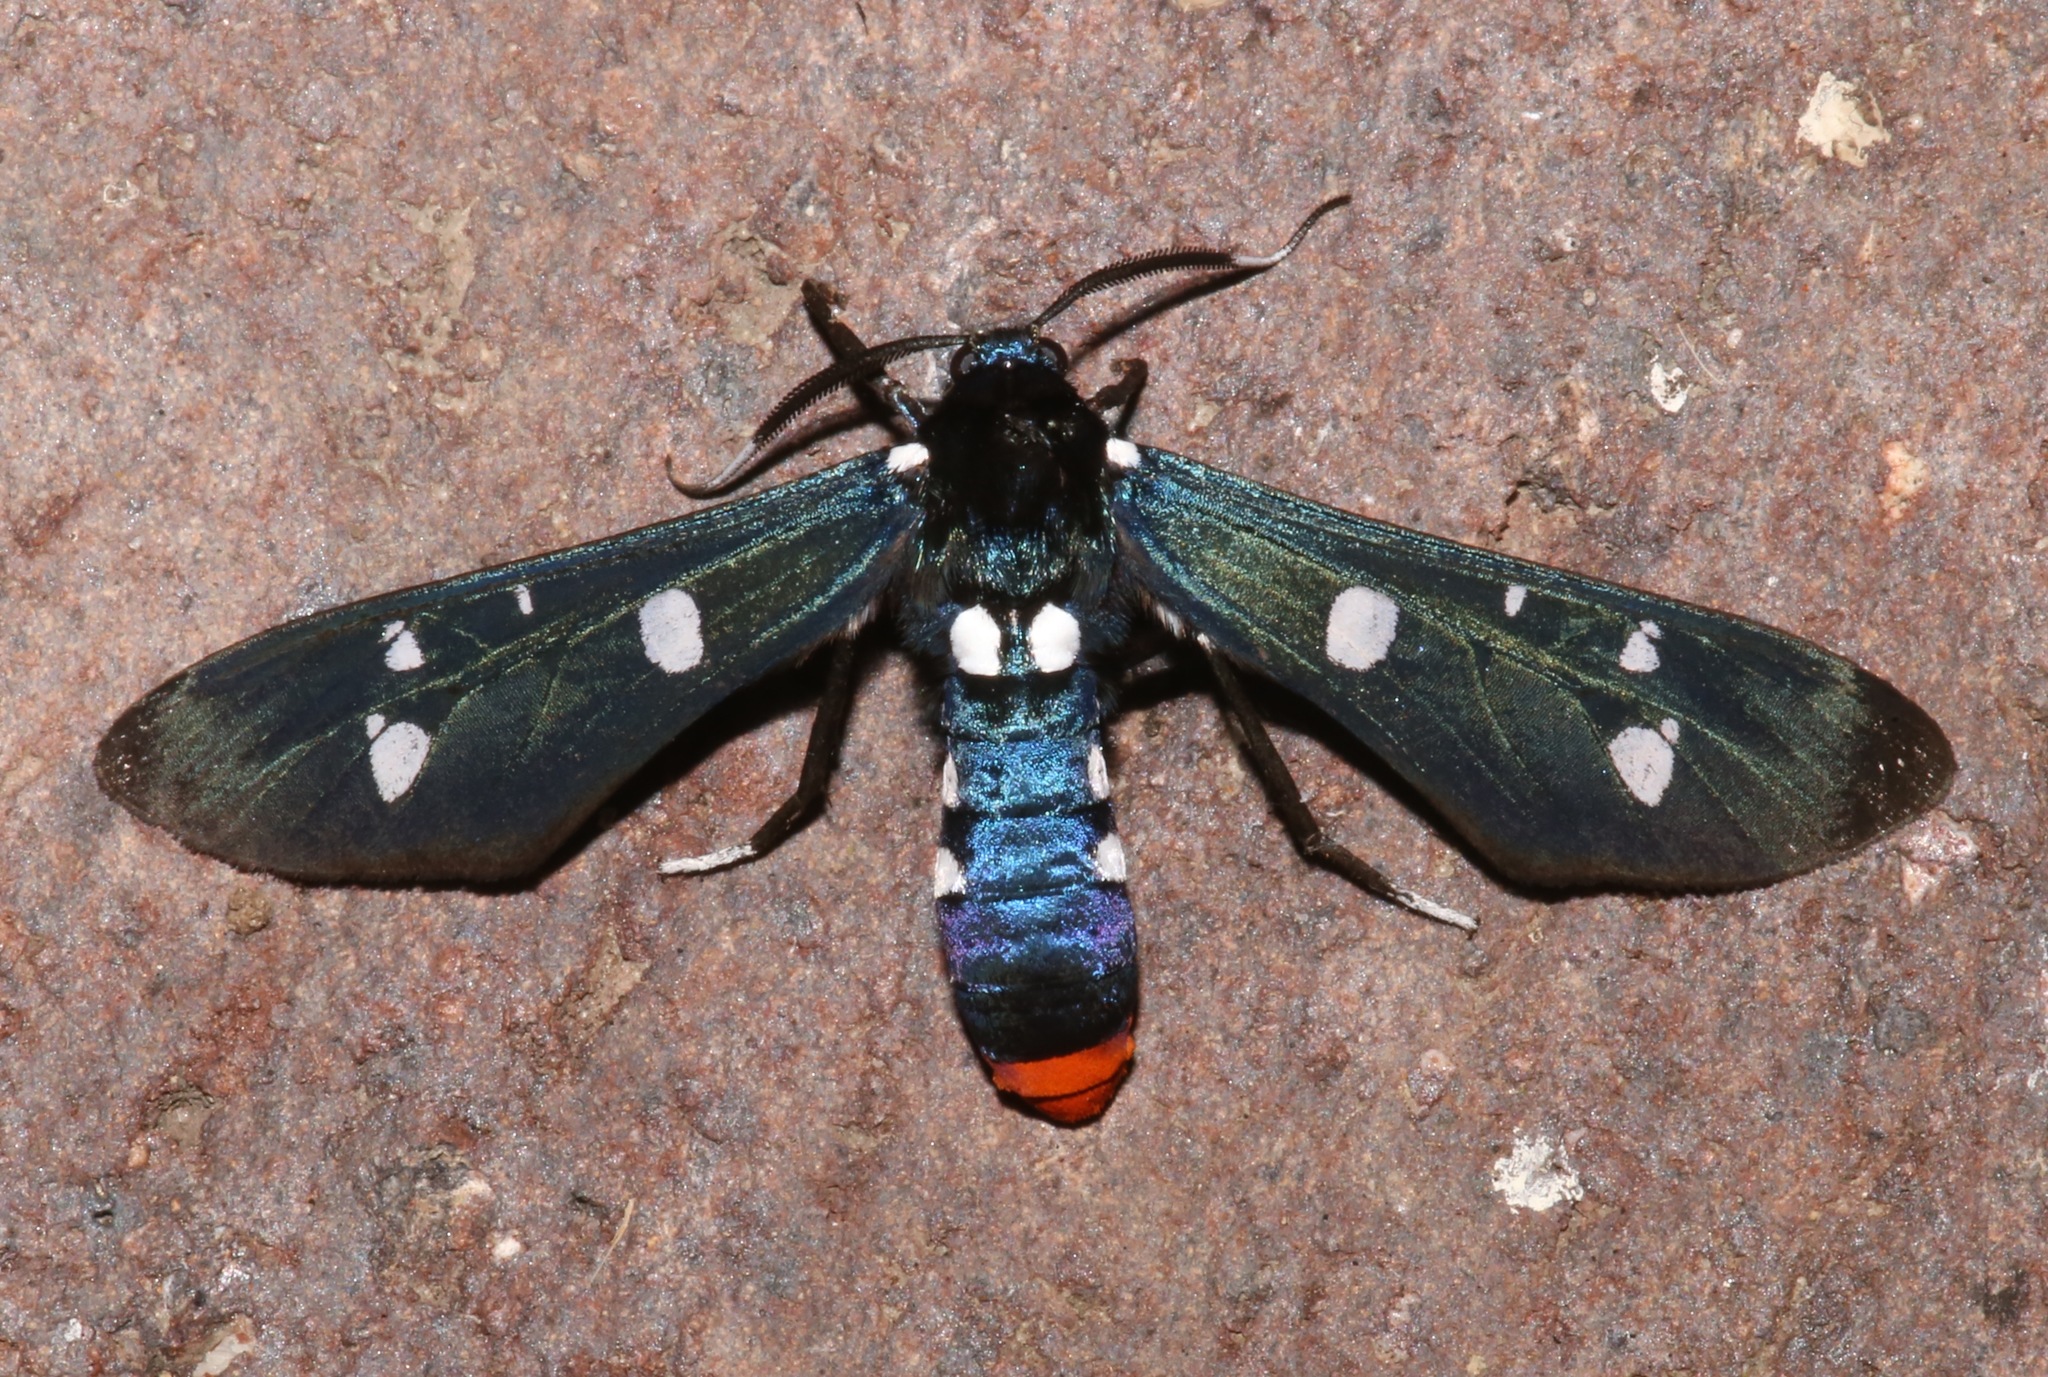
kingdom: Animalia
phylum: Arthropoda
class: Insecta
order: Lepidoptera
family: Erebidae
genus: Syntomeida
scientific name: Syntomeida epilais
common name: Polka-dot wasp moth
